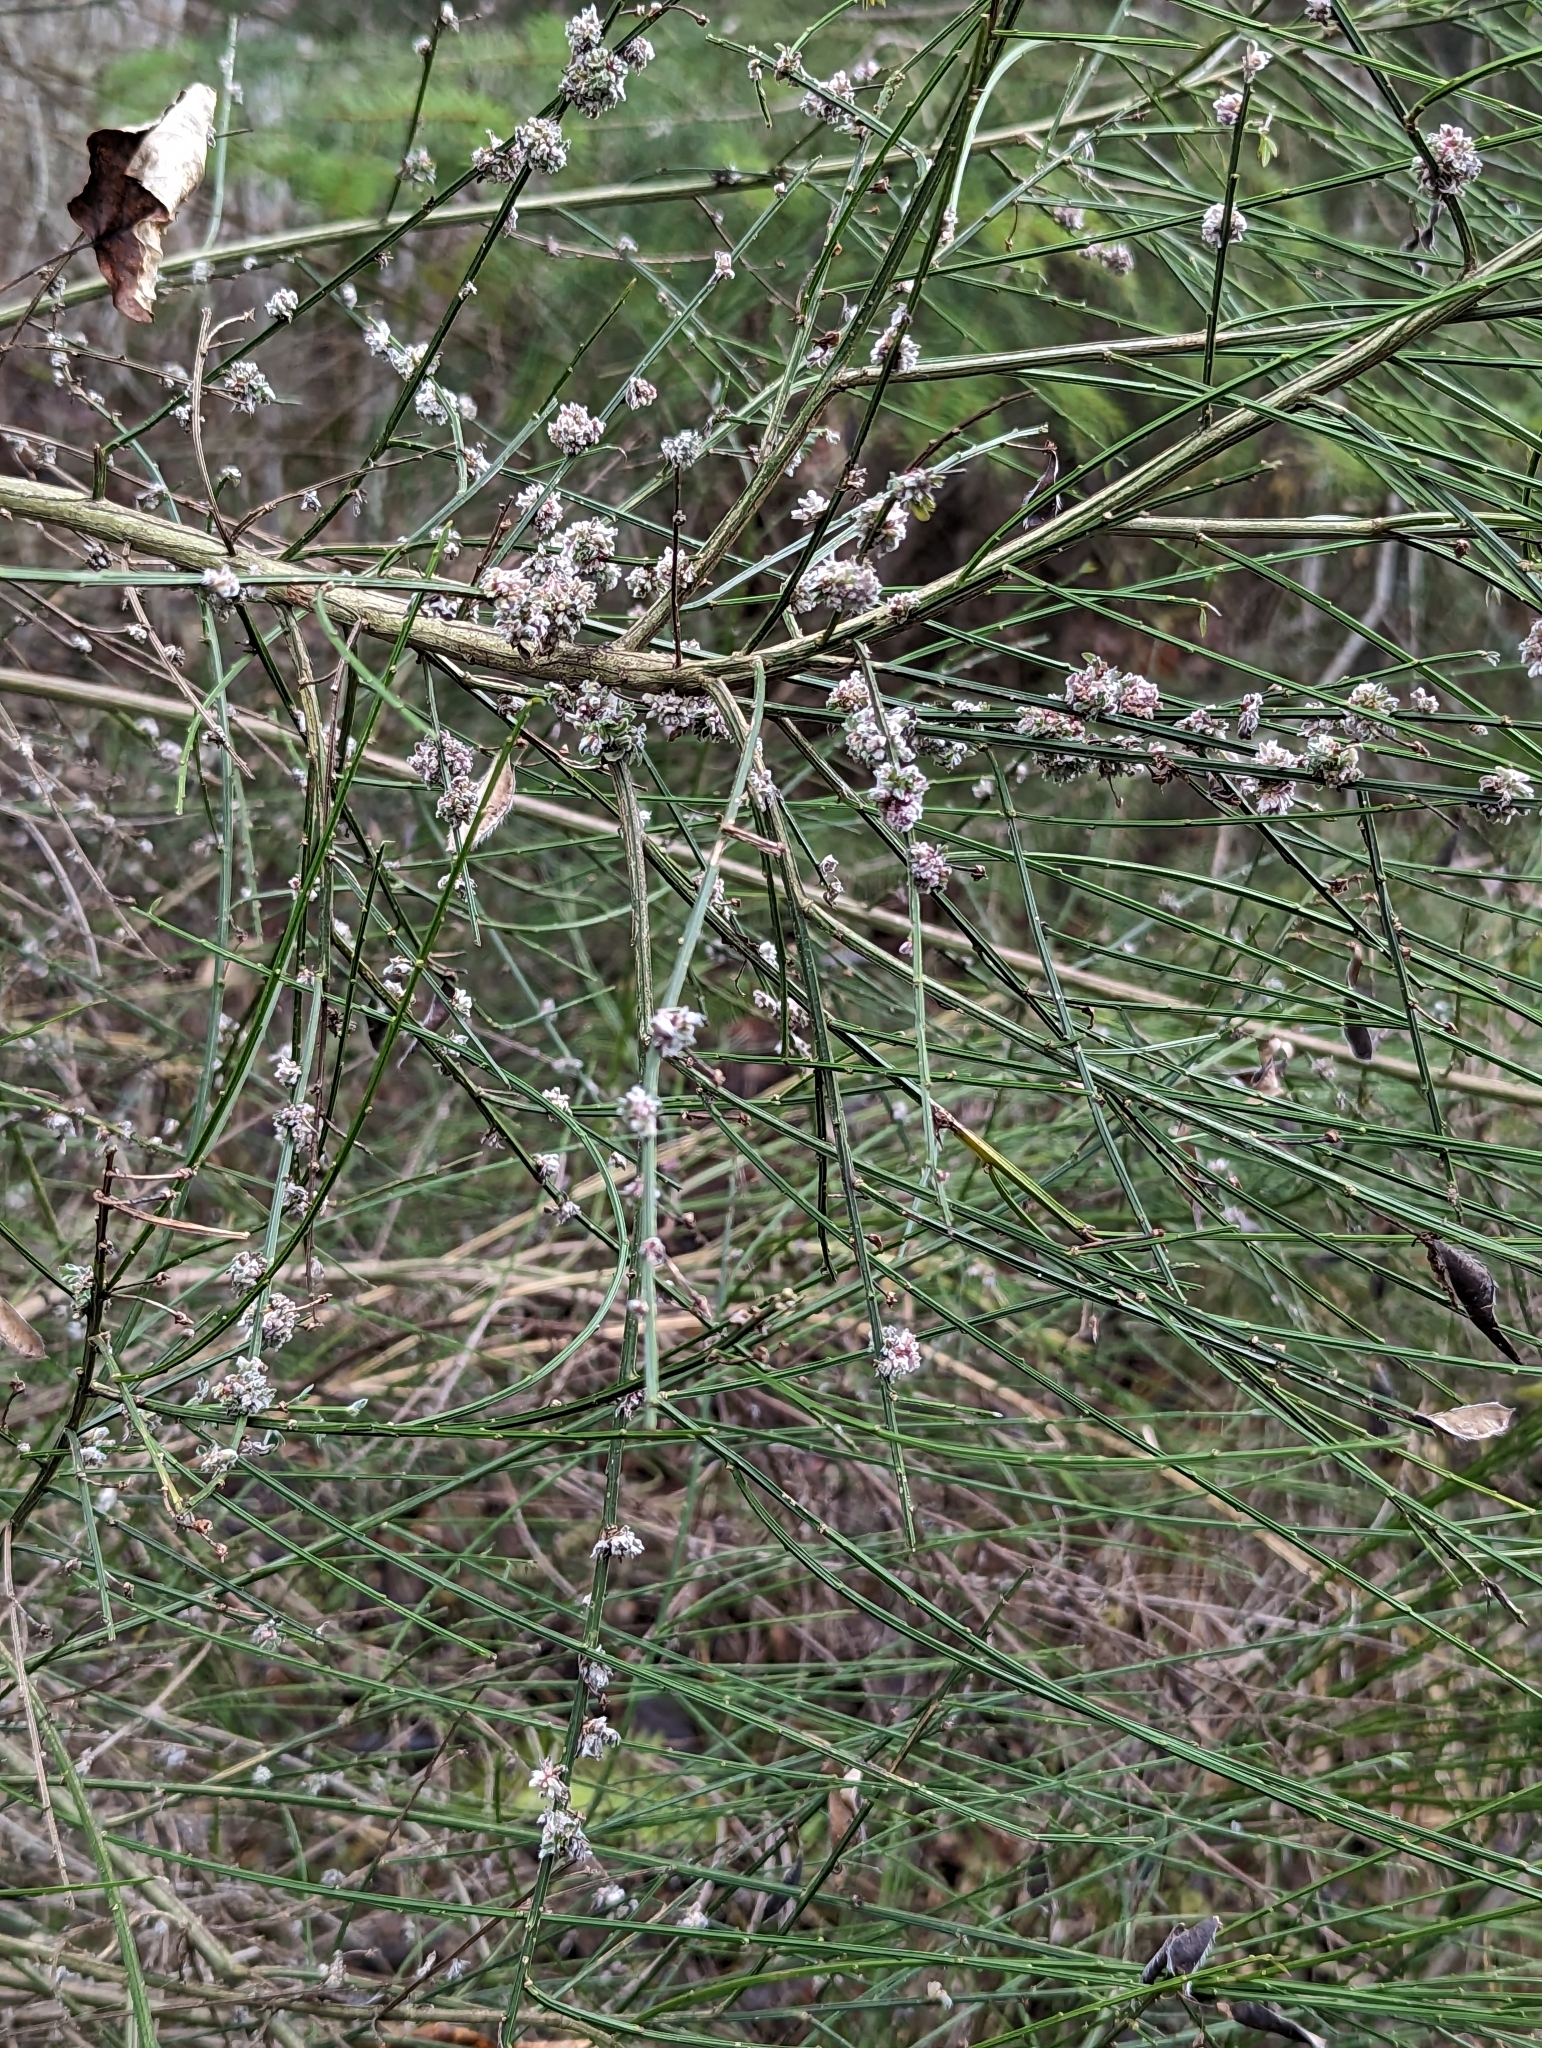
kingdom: Animalia
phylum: Arthropoda
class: Arachnida
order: Trombidiformes
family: Eriophyidae
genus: Aceria
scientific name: Aceria genistae
